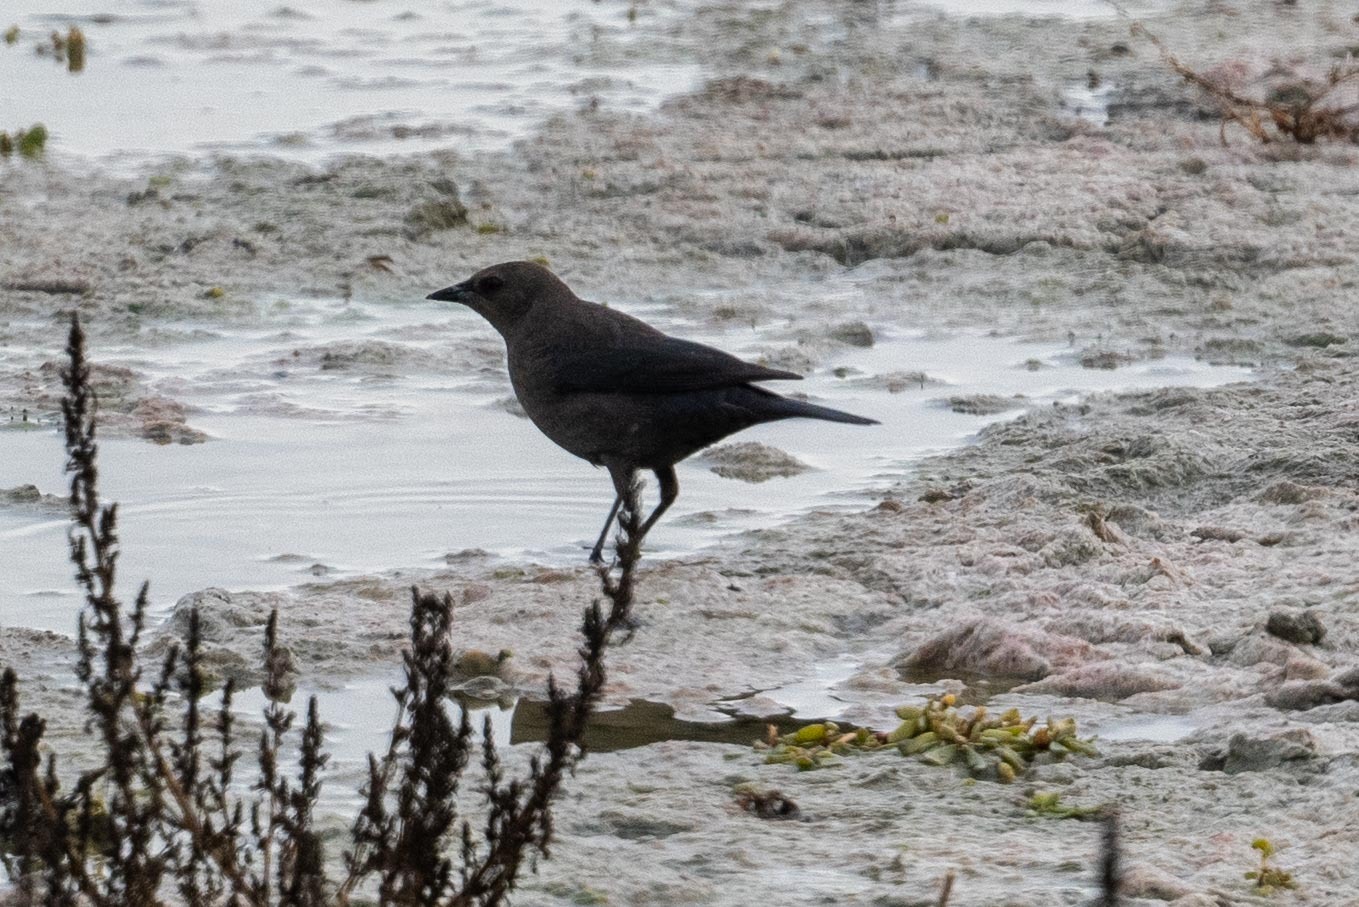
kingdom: Animalia
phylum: Chordata
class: Aves
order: Passeriformes
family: Icteridae
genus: Euphagus
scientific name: Euphagus cyanocephalus
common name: Brewer's blackbird
